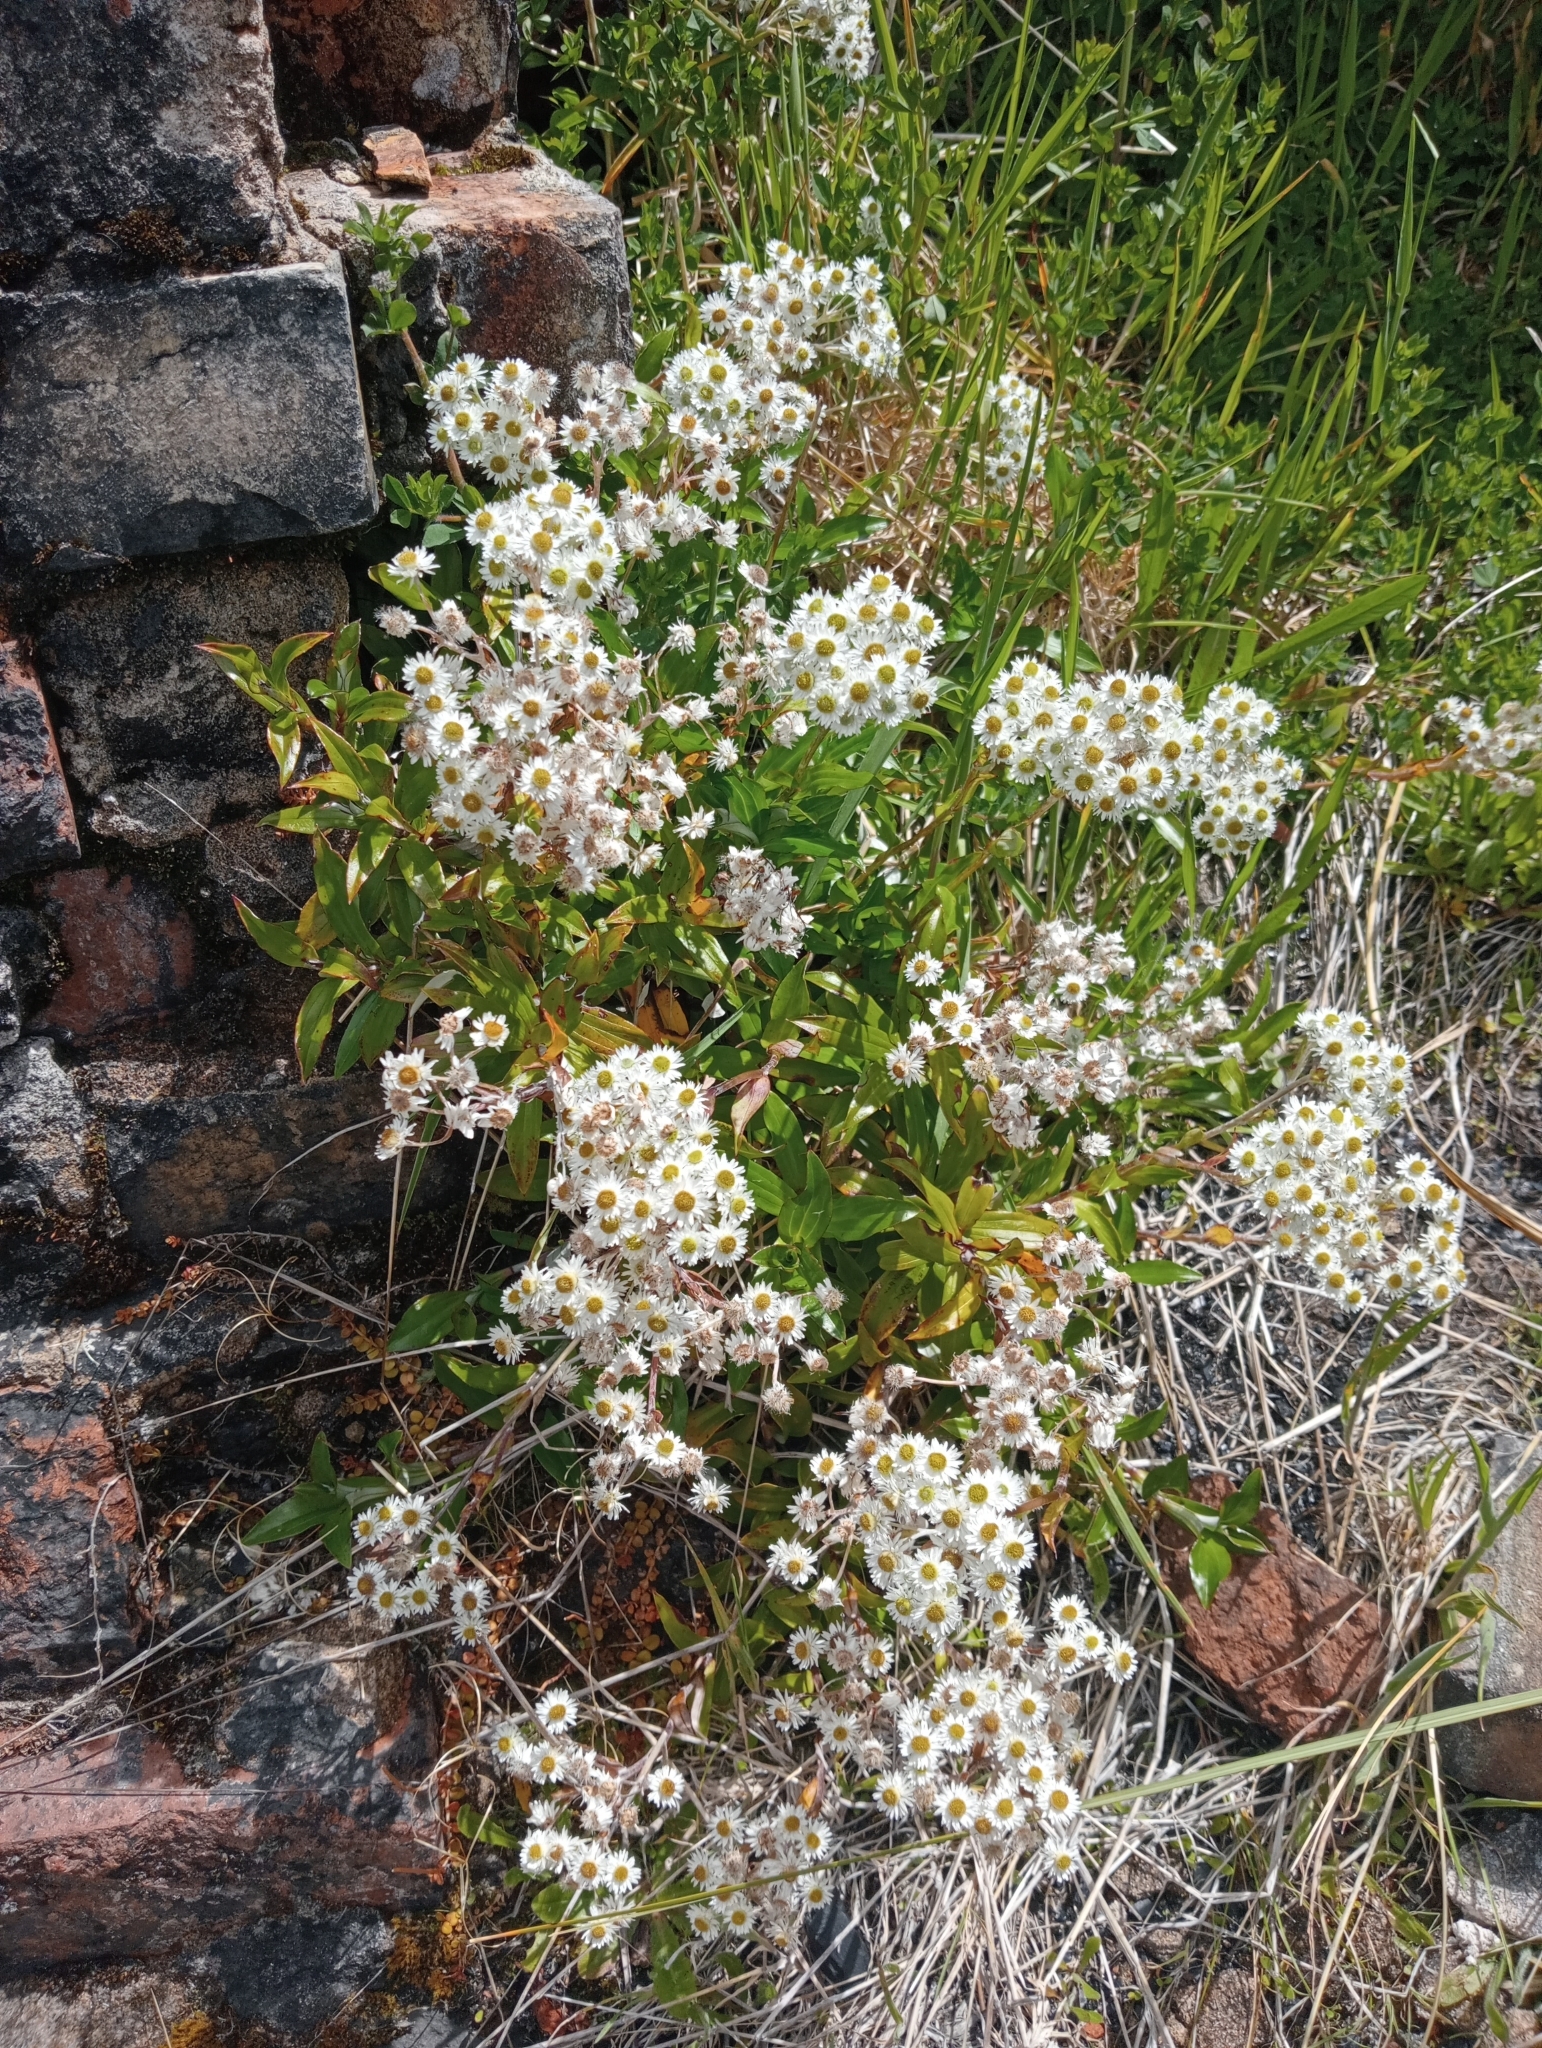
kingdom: Plantae
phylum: Tracheophyta
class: Magnoliopsida
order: Asterales
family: Asteraceae
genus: Anaphalioides
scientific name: Anaphalioides trinervis
